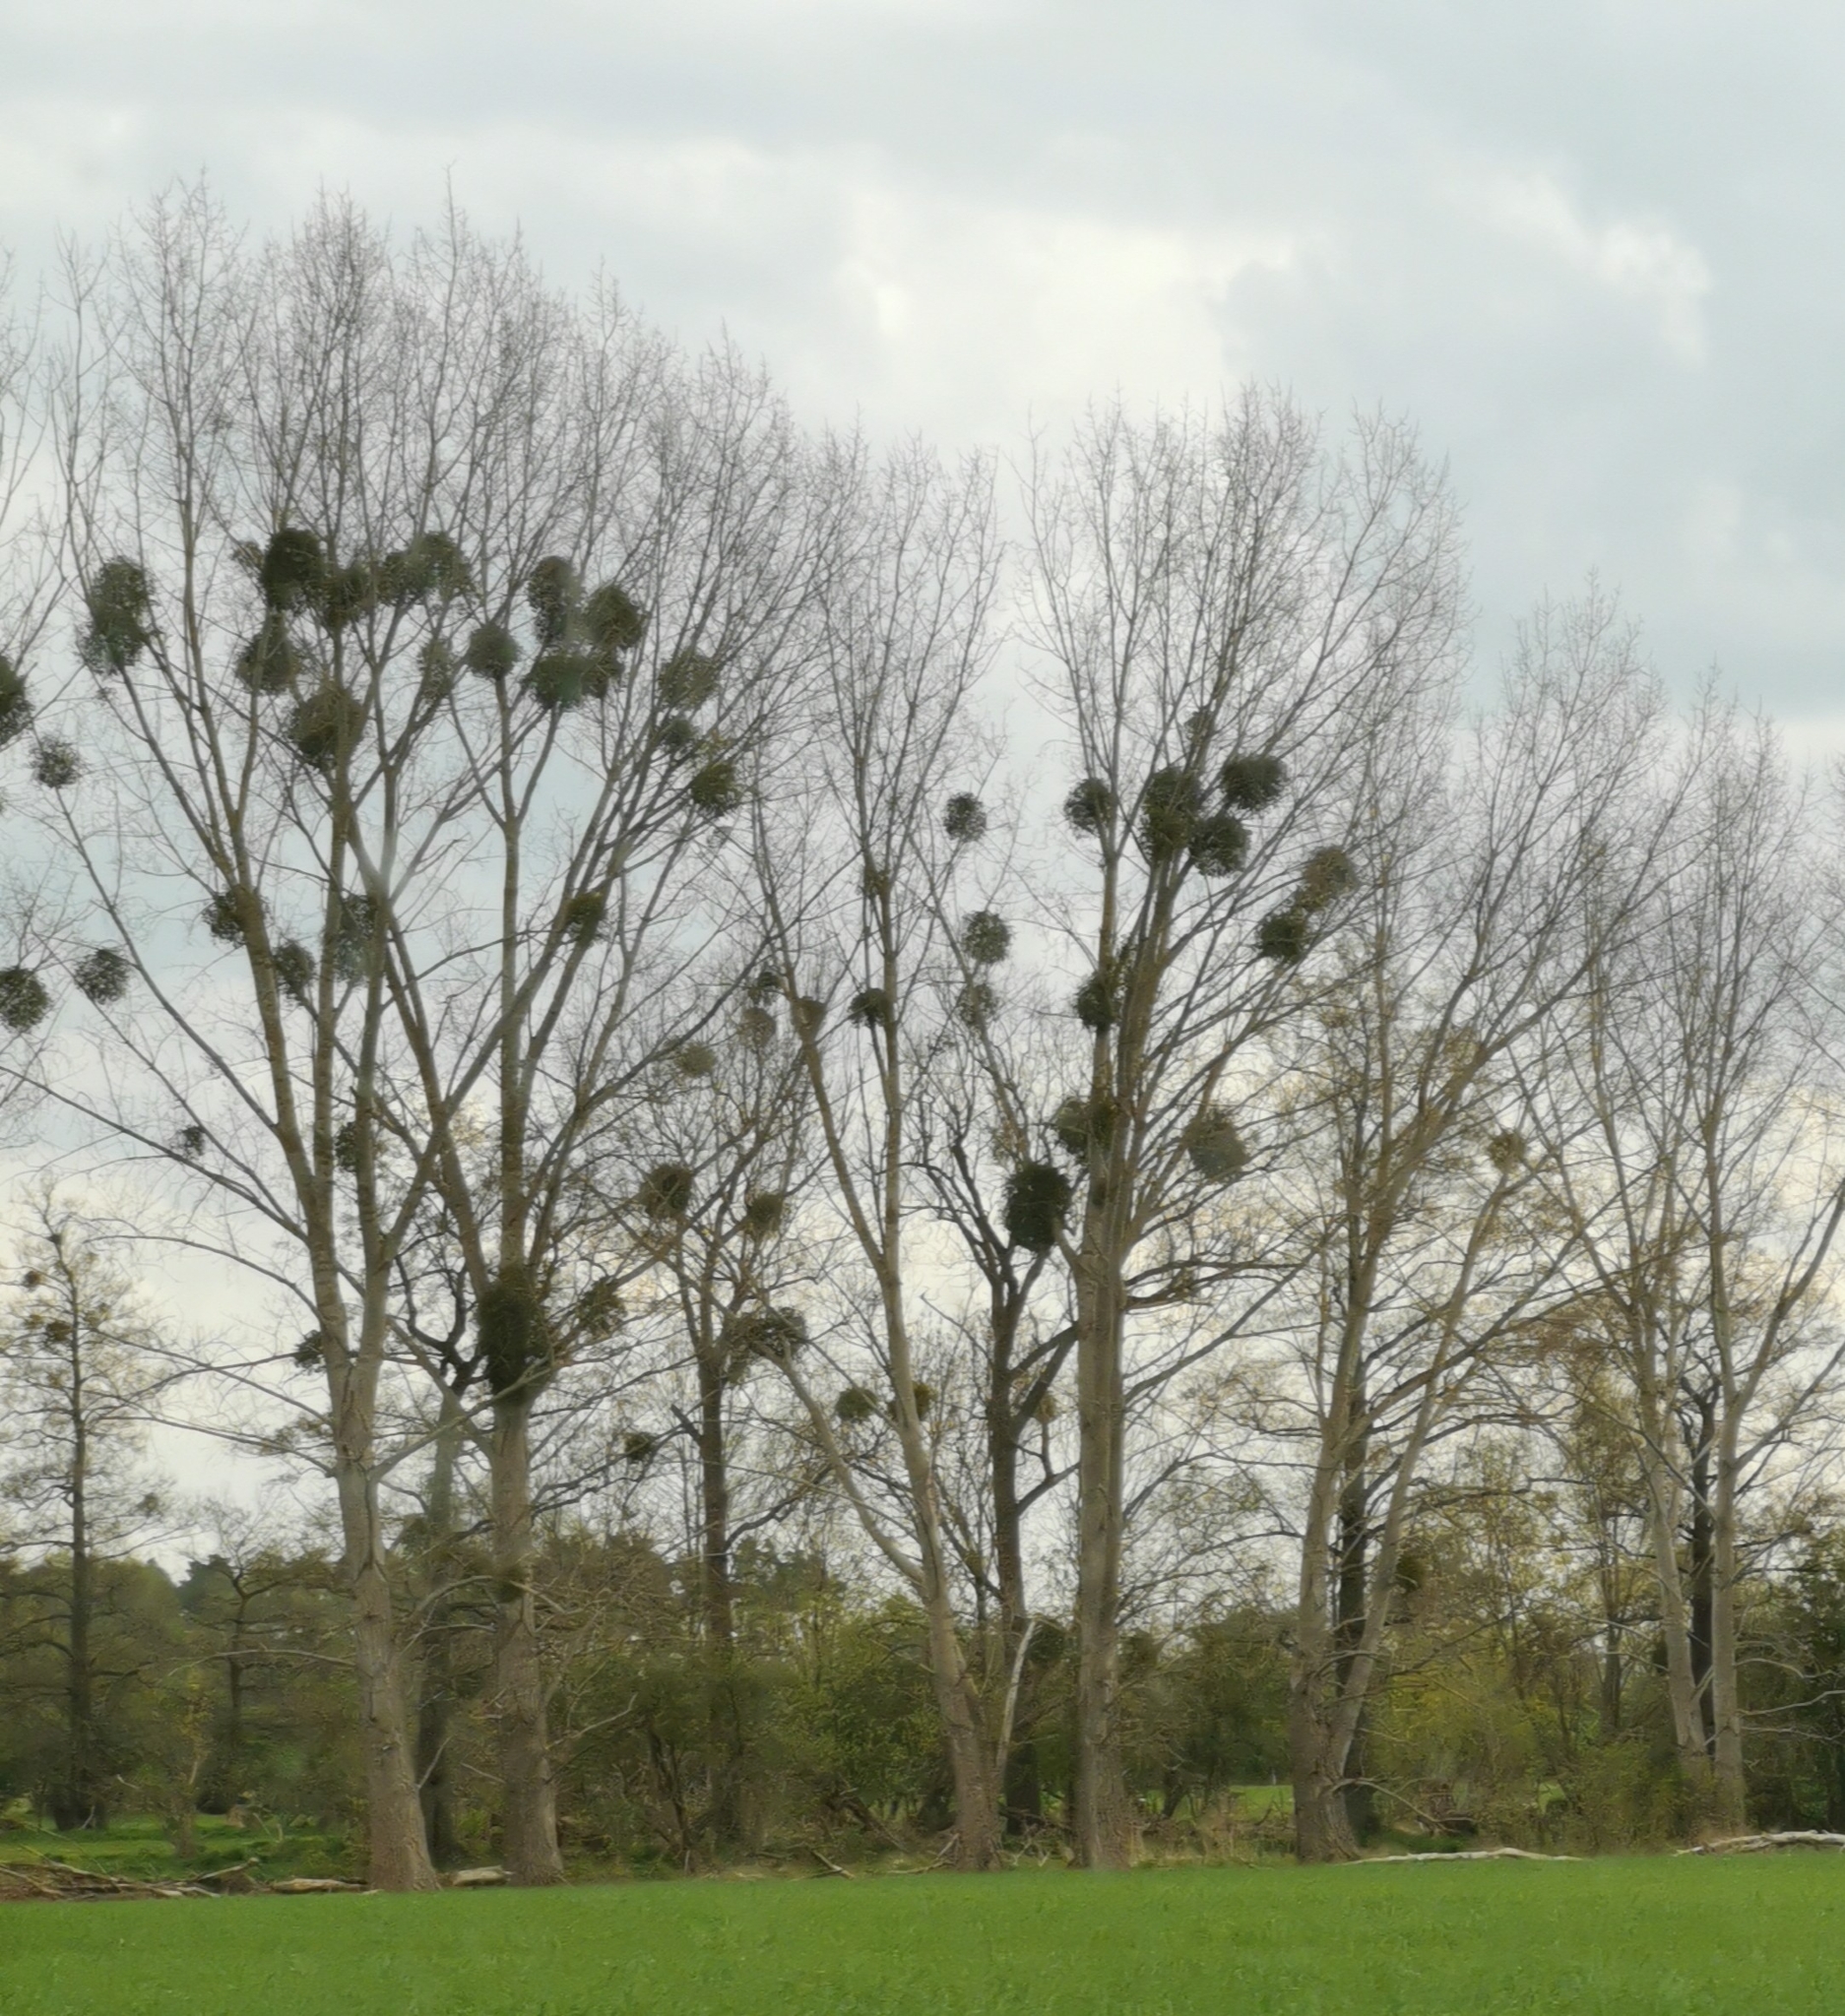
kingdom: Plantae
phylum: Tracheophyta
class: Magnoliopsida
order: Santalales
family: Viscaceae
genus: Viscum
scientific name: Viscum album
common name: Mistletoe
